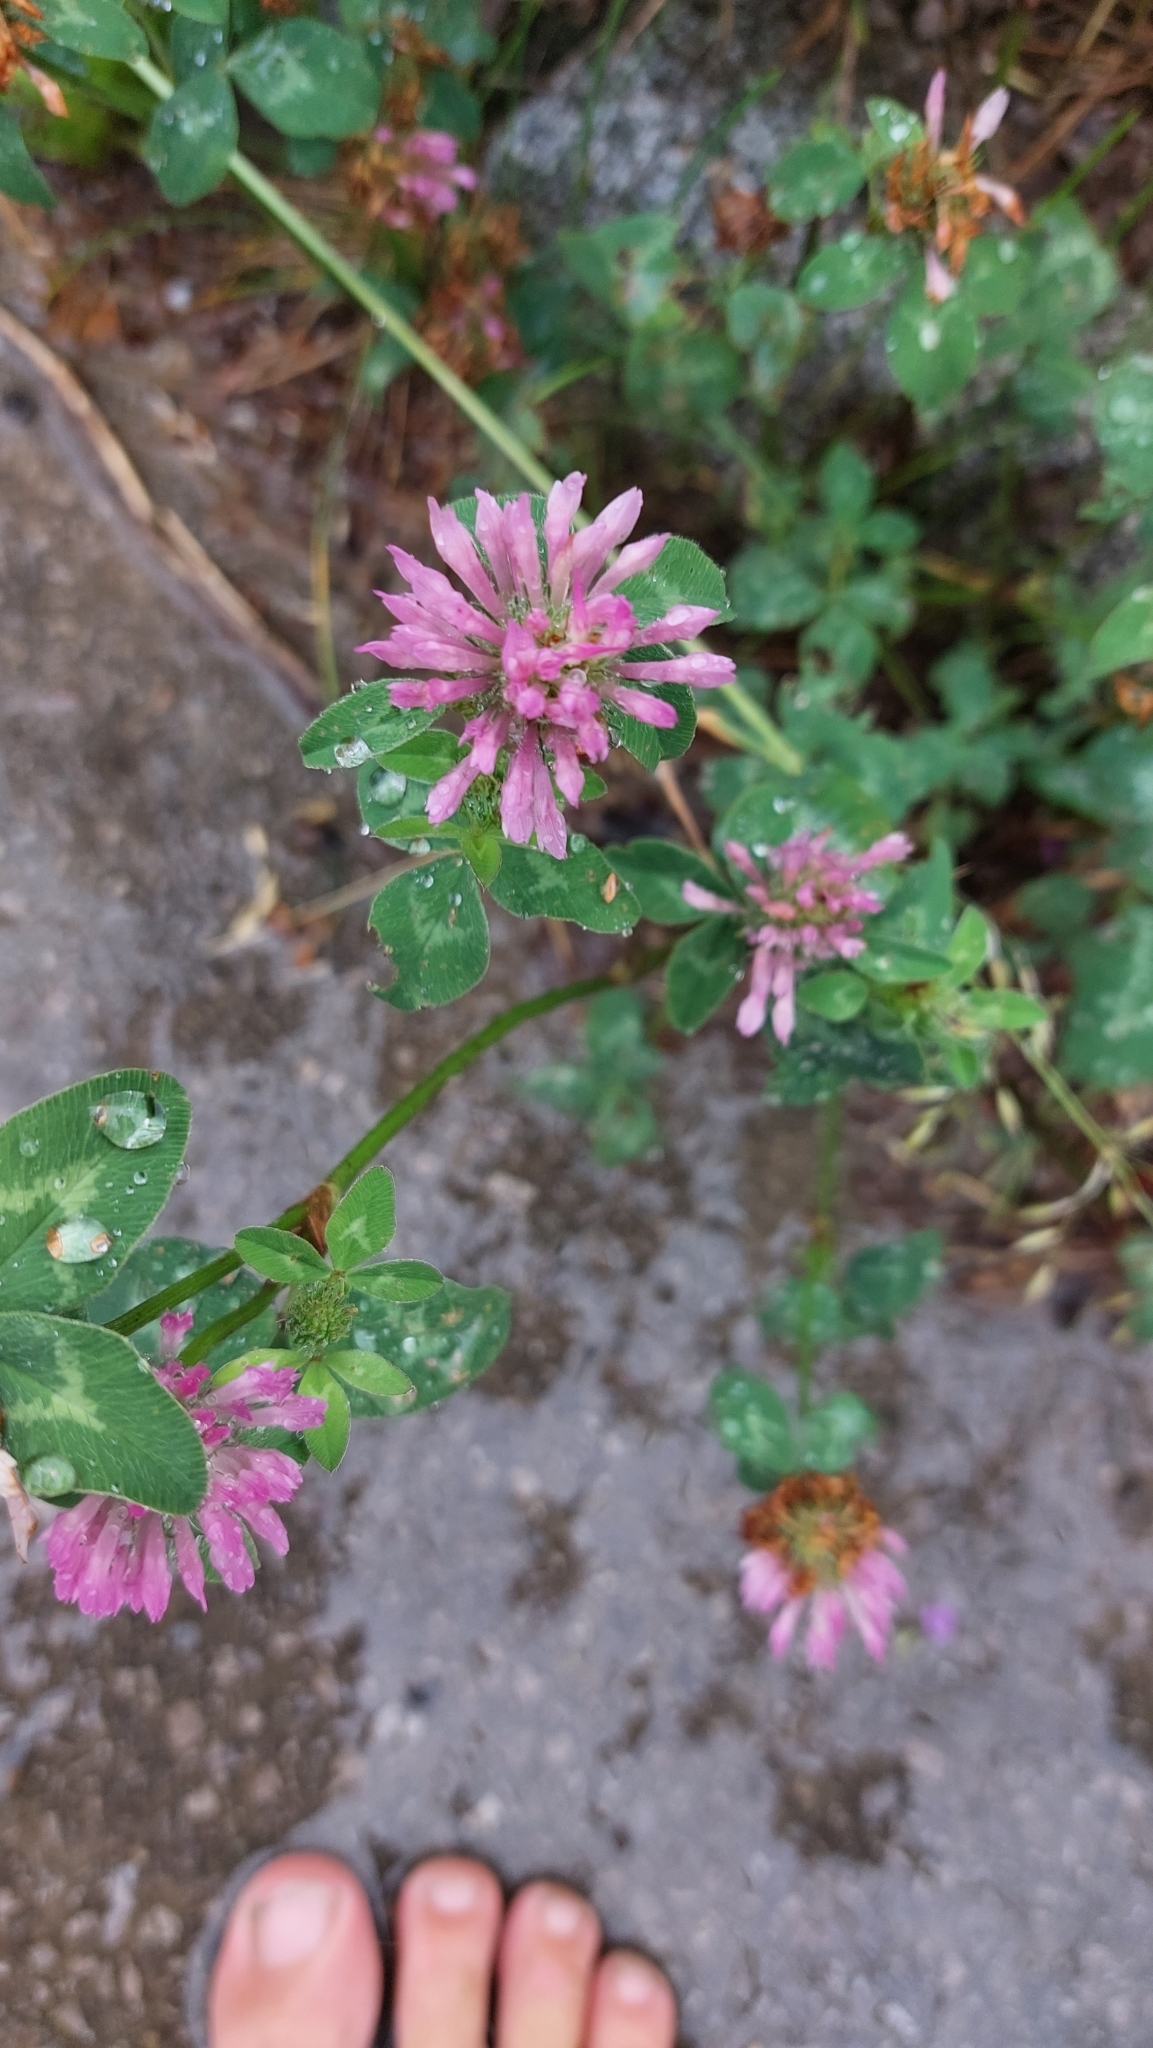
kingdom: Plantae
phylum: Tracheophyta
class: Magnoliopsida
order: Fabales
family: Fabaceae
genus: Trifolium
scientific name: Trifolium pratense
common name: Red clover
